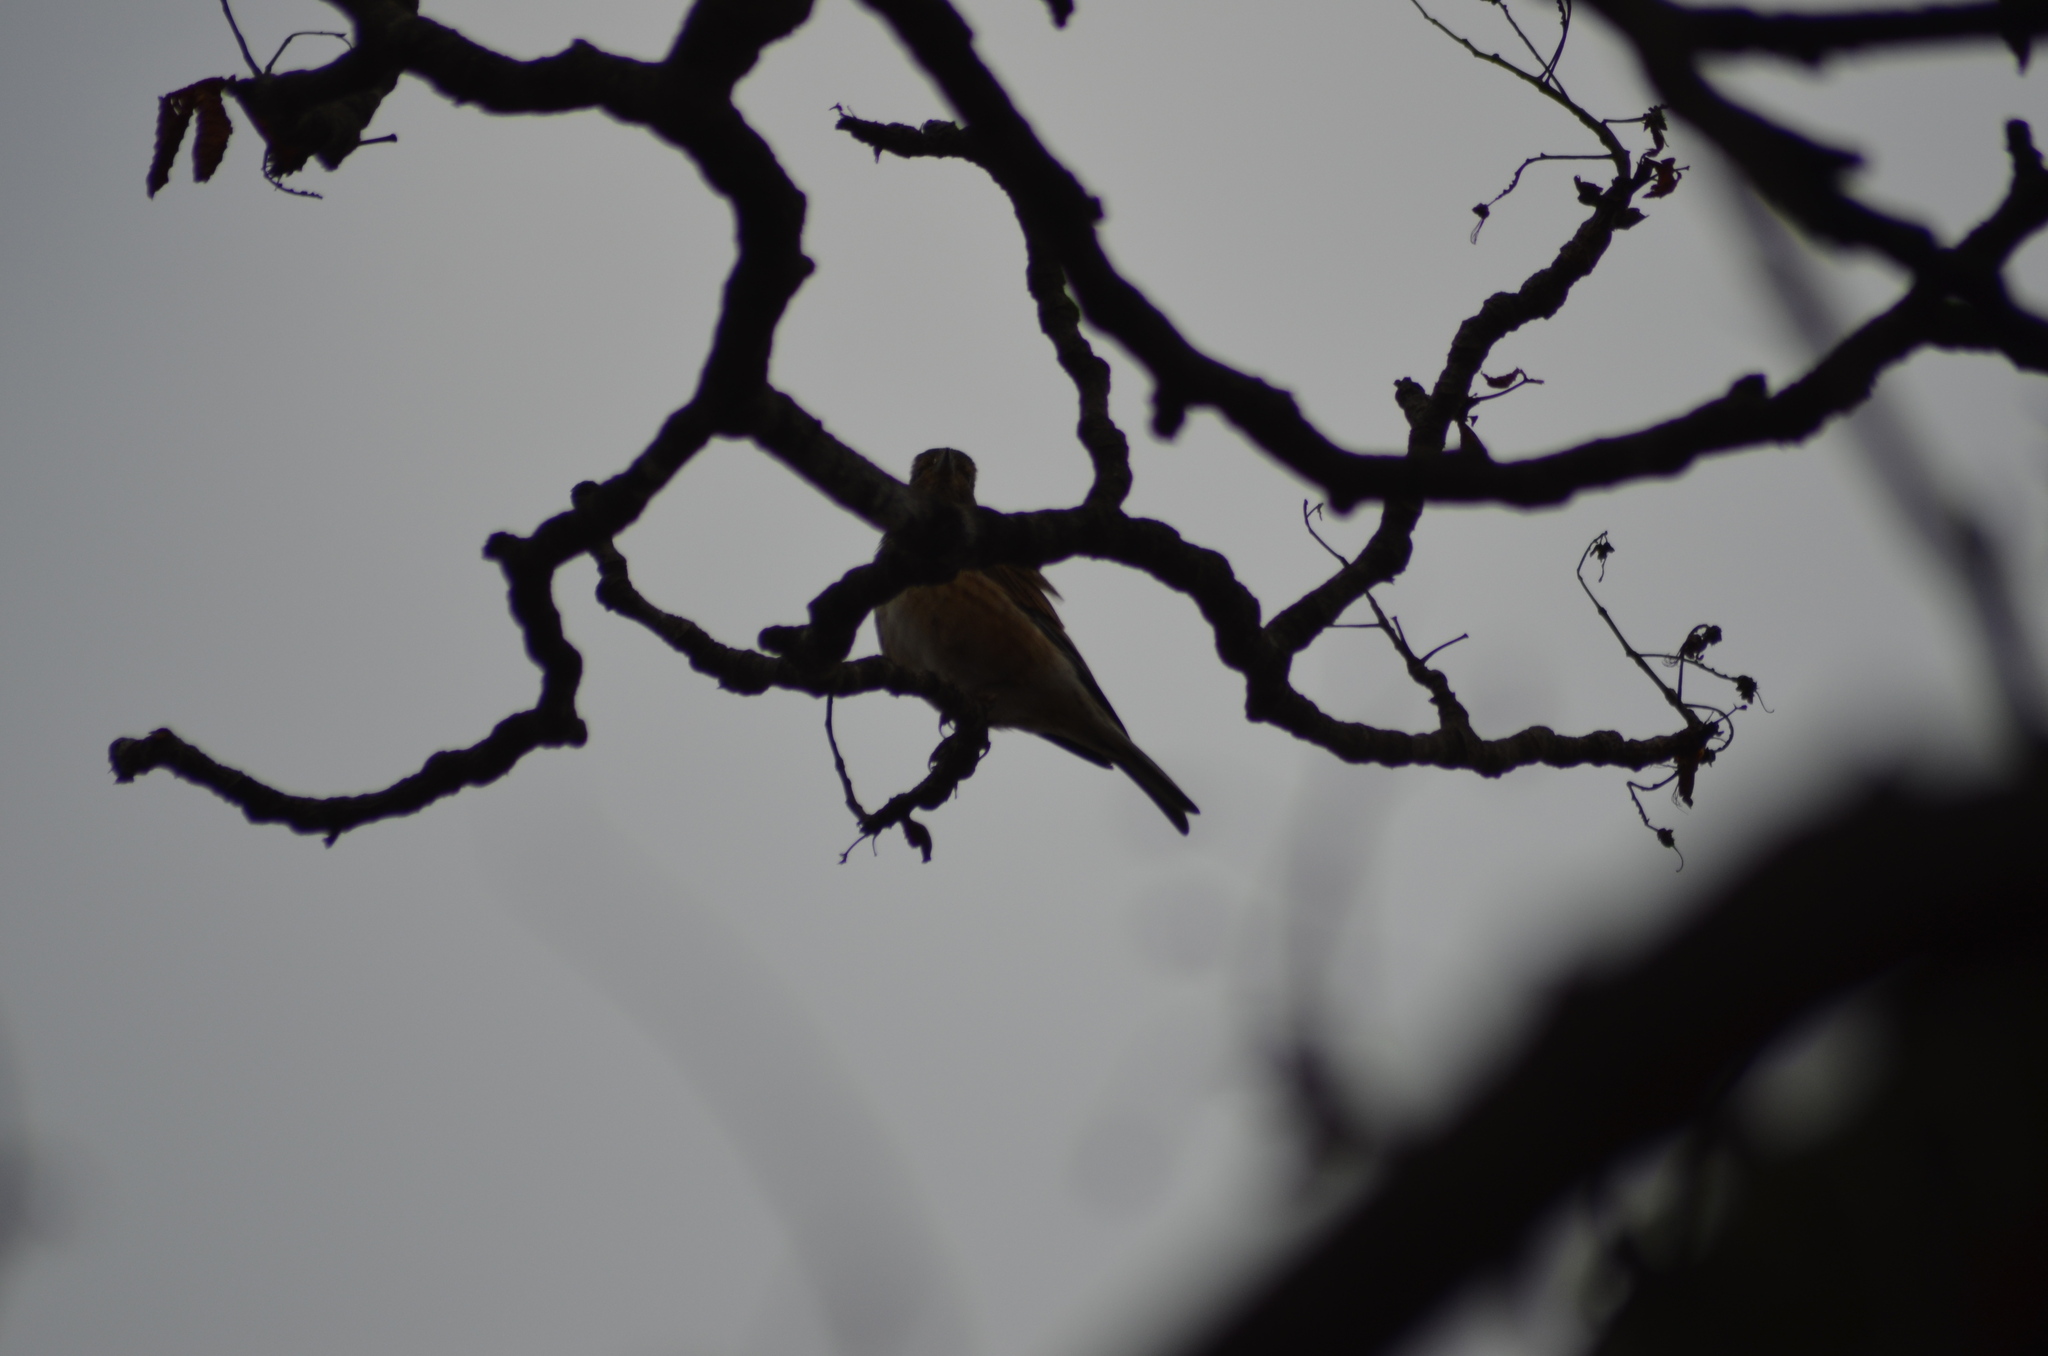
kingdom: Animalia
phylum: Chordata
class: Aves
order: Passeriformes
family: Fringillidae
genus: Linaria
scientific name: Linaria cannabina
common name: Common linnet
